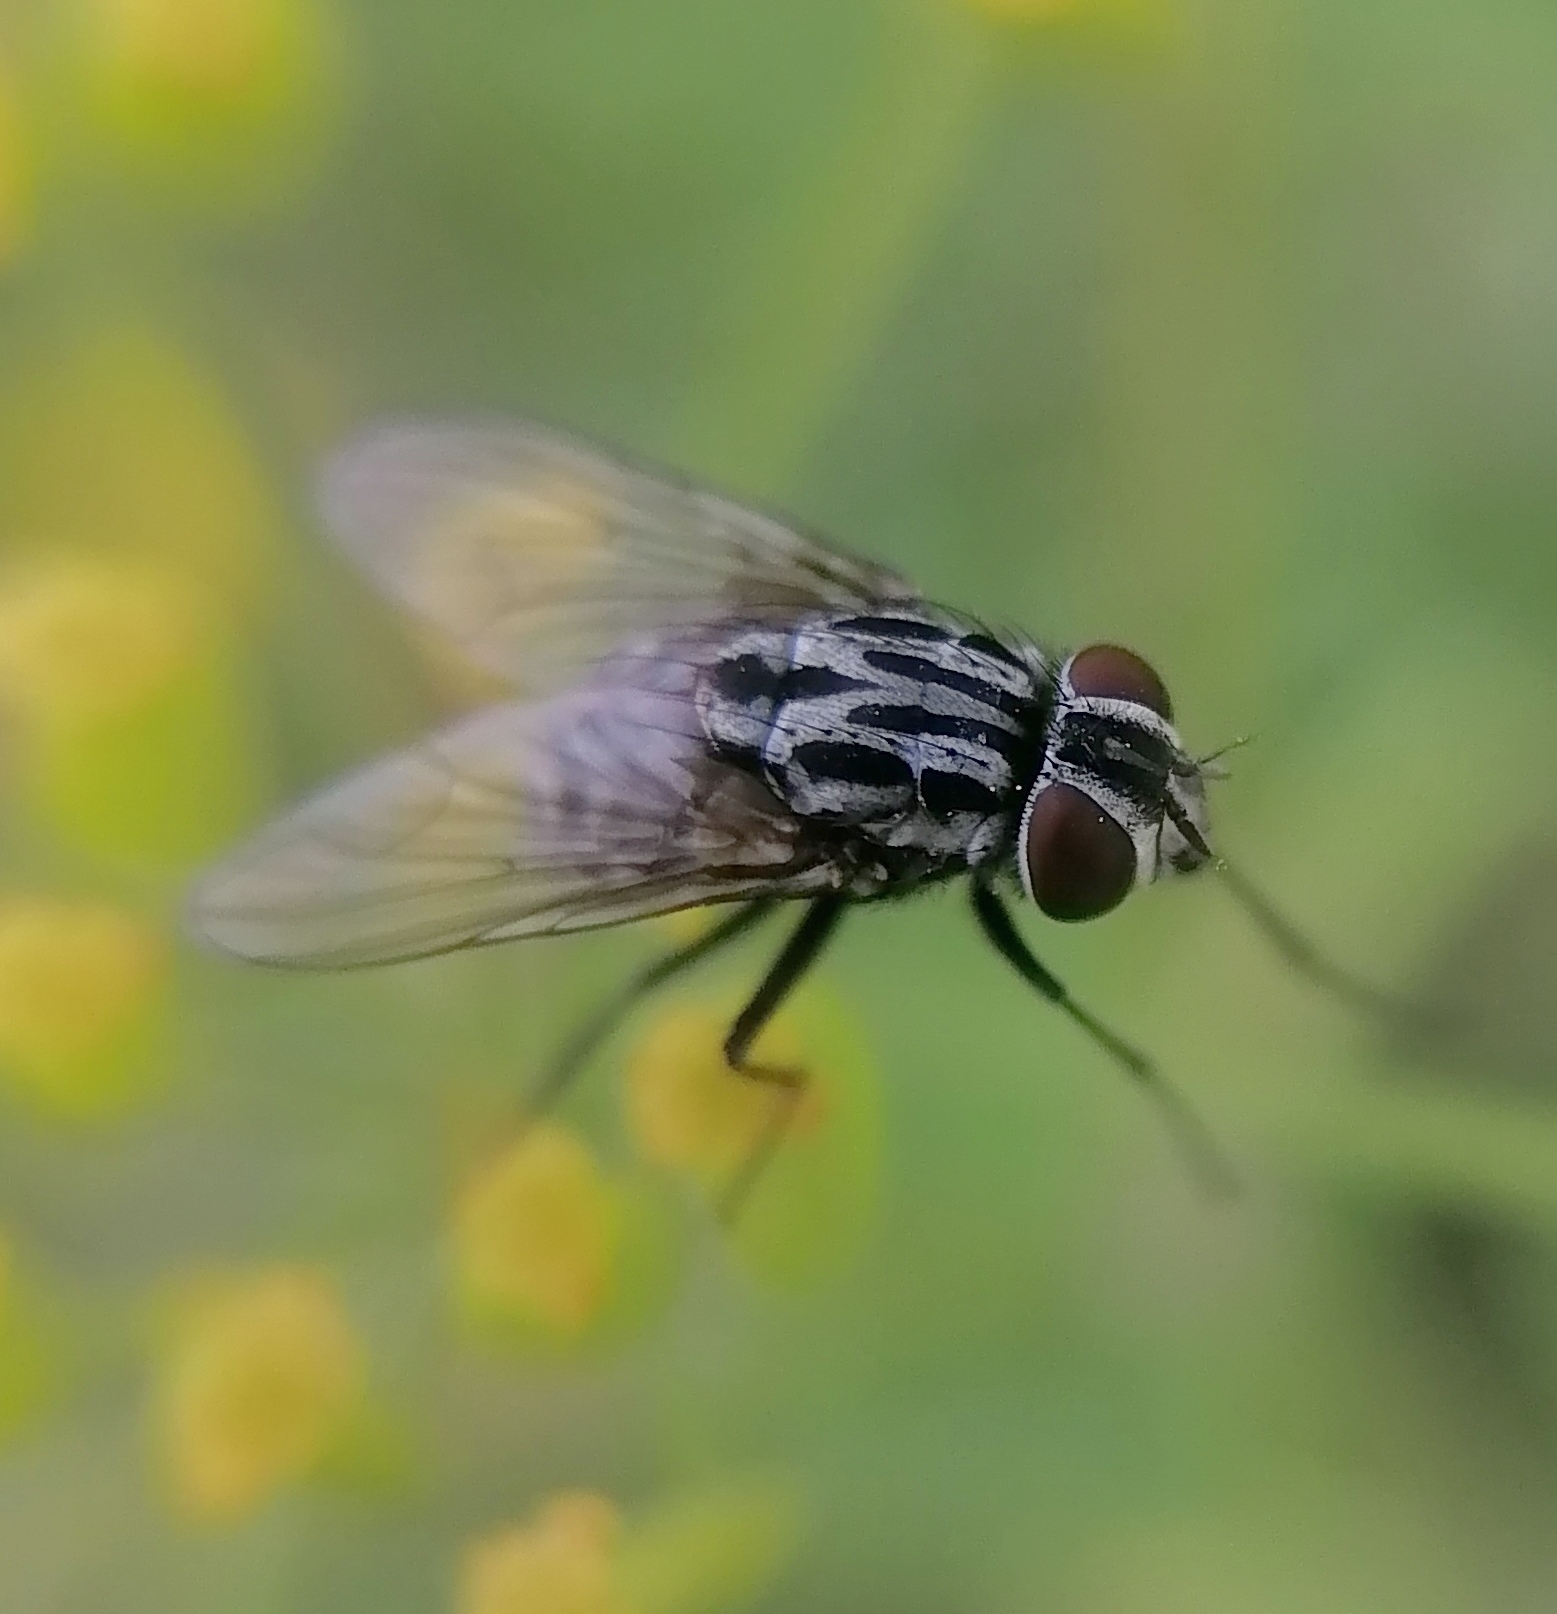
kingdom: Animalia
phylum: Arthropoda
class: Insecta
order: Diptera
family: Muscidae
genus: Graphomya
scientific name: Graphomya maculata
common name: Muscid fly
